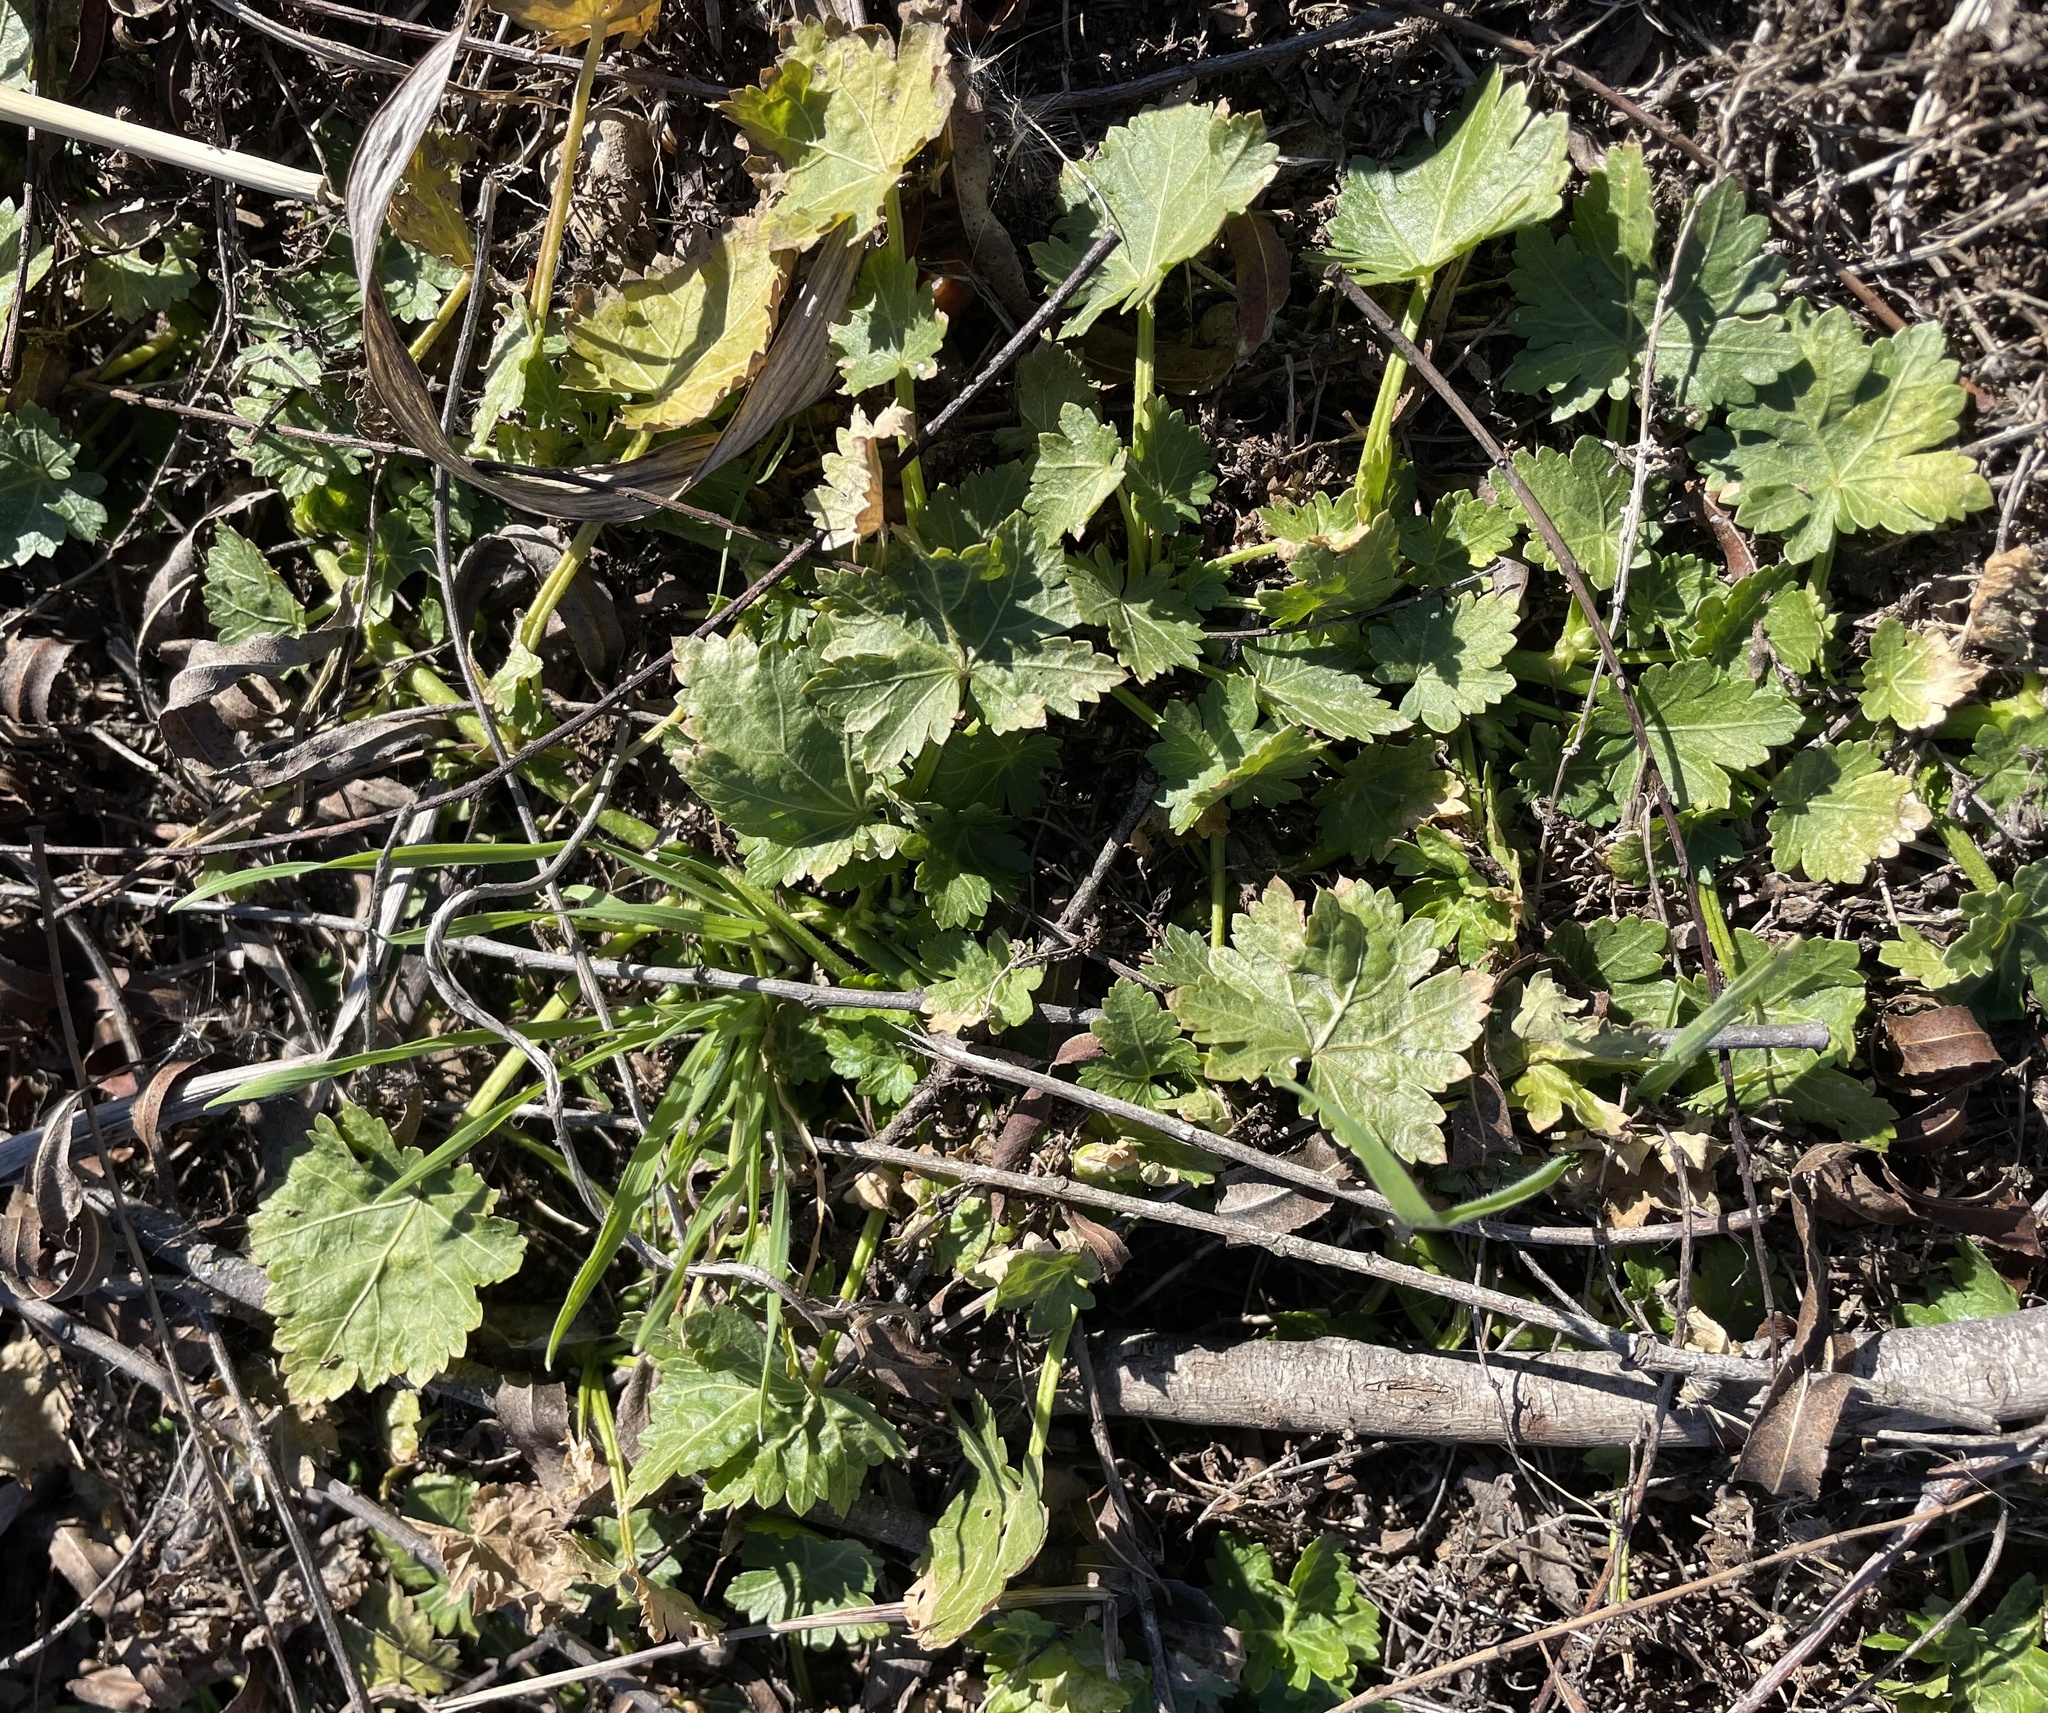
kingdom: Plantae
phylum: Tracheophyta
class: Magnoliopsida
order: Malvales
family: Malvaceae
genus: Modiola
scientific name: Modiola caroliniana
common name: Carolina bristlemallow
